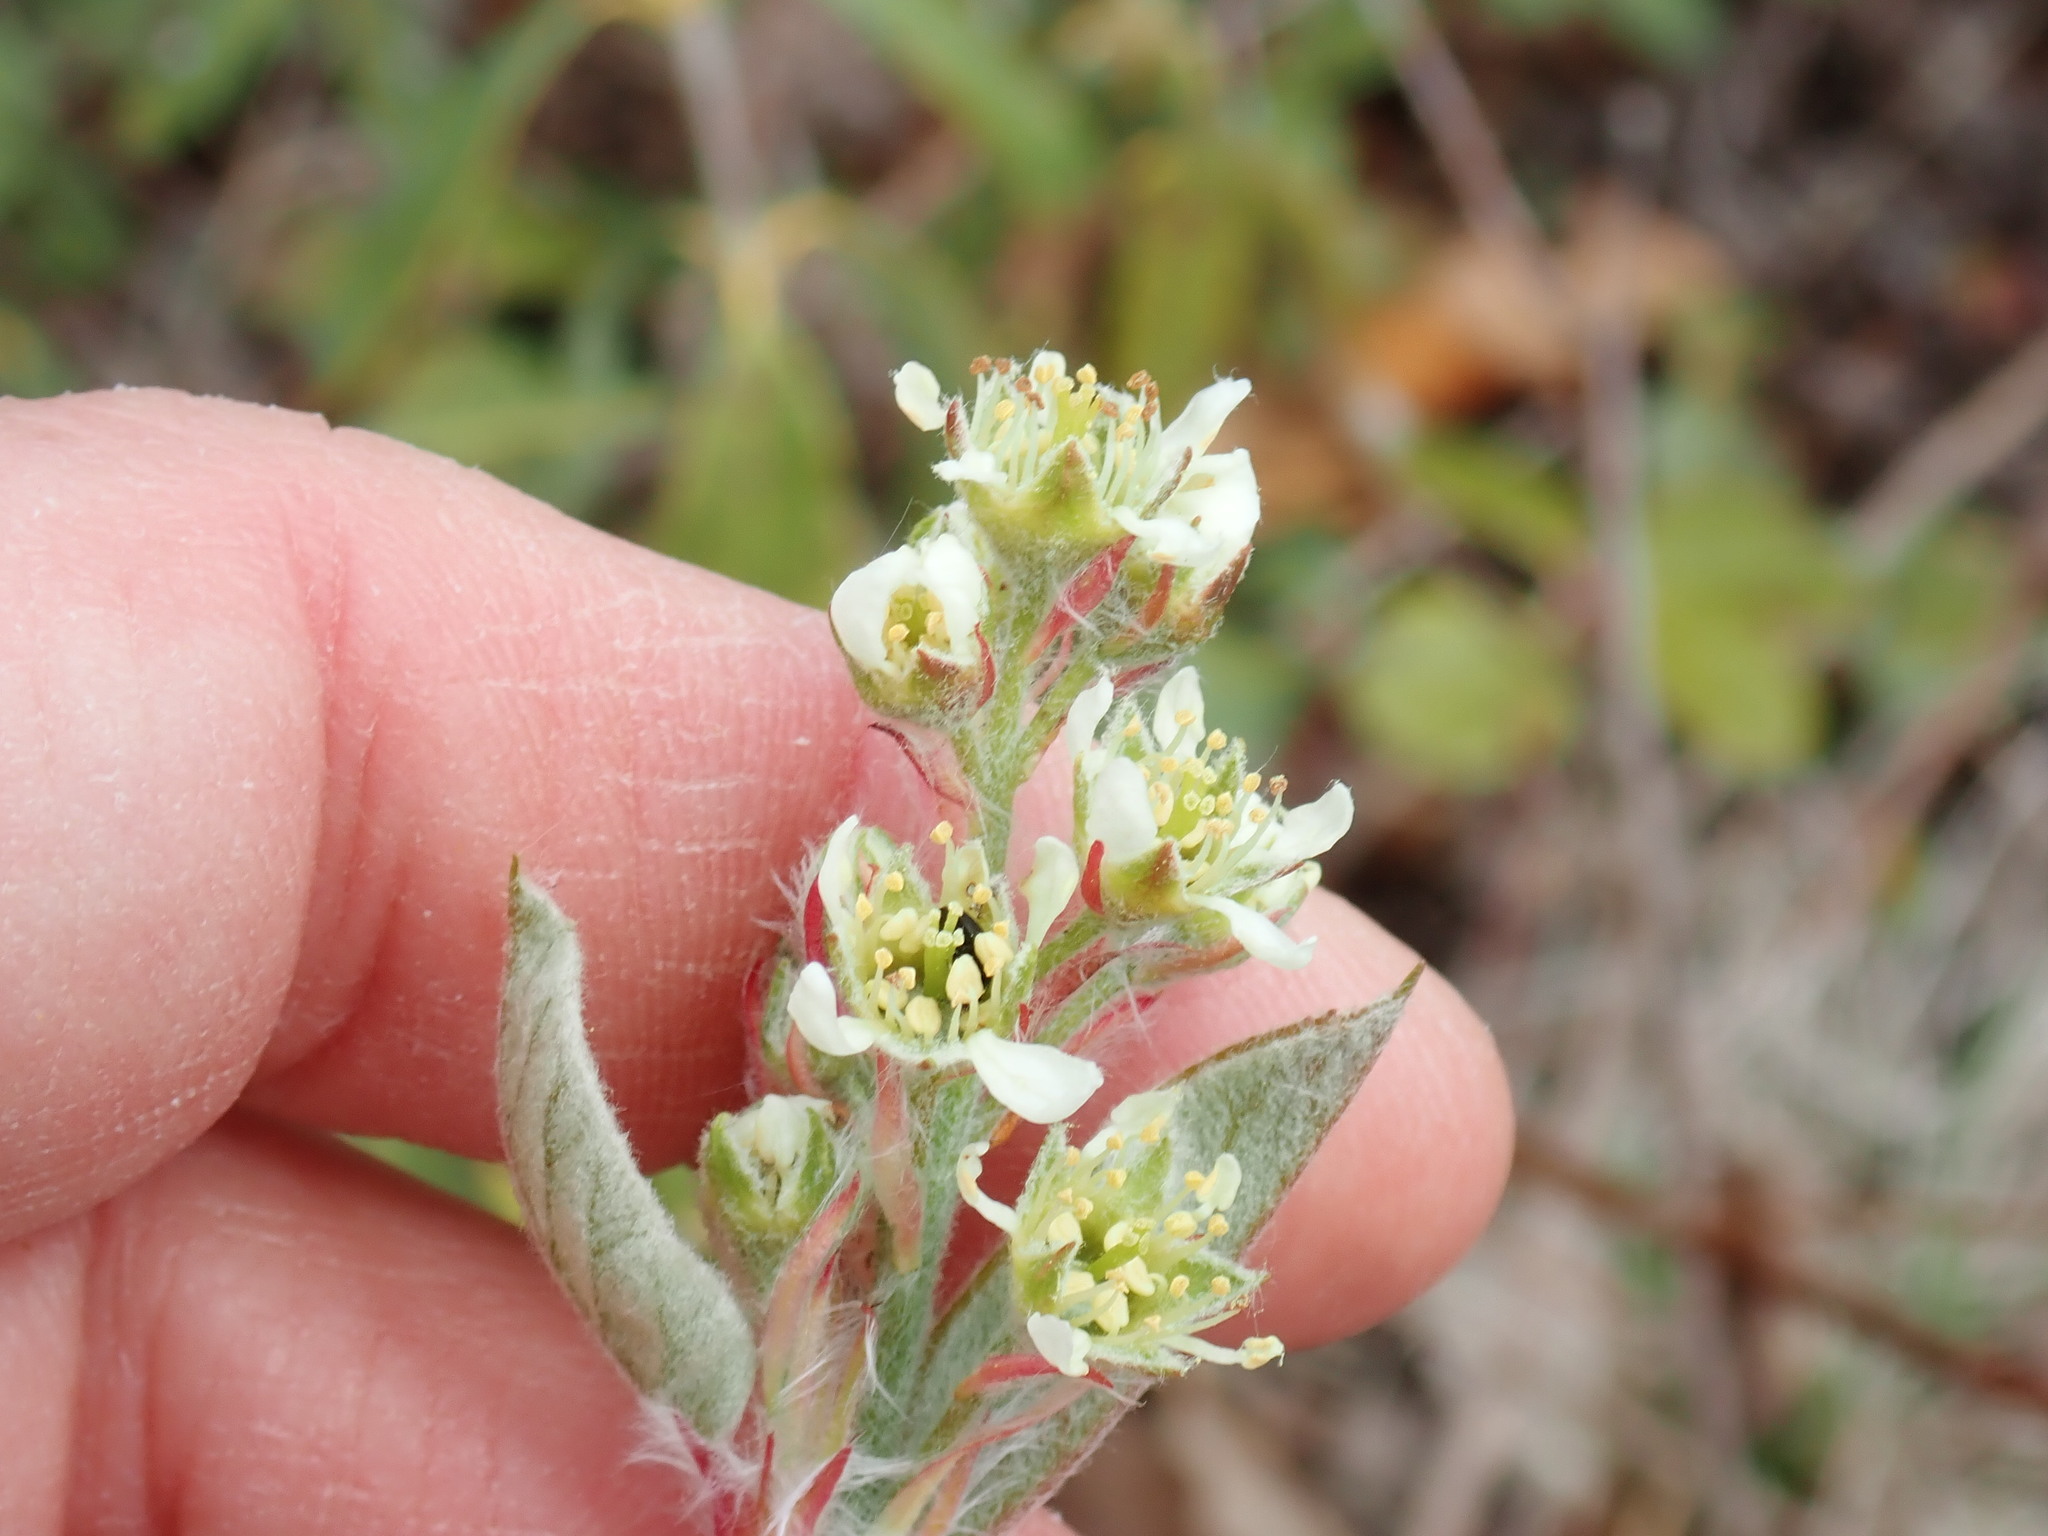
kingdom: Plantae
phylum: Tracheophyta
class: Magnoliopsida
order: Rosales
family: Rosaceae
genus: Amelanchier
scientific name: Amelanchier nantucketensis
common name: Nantucket shadbush
